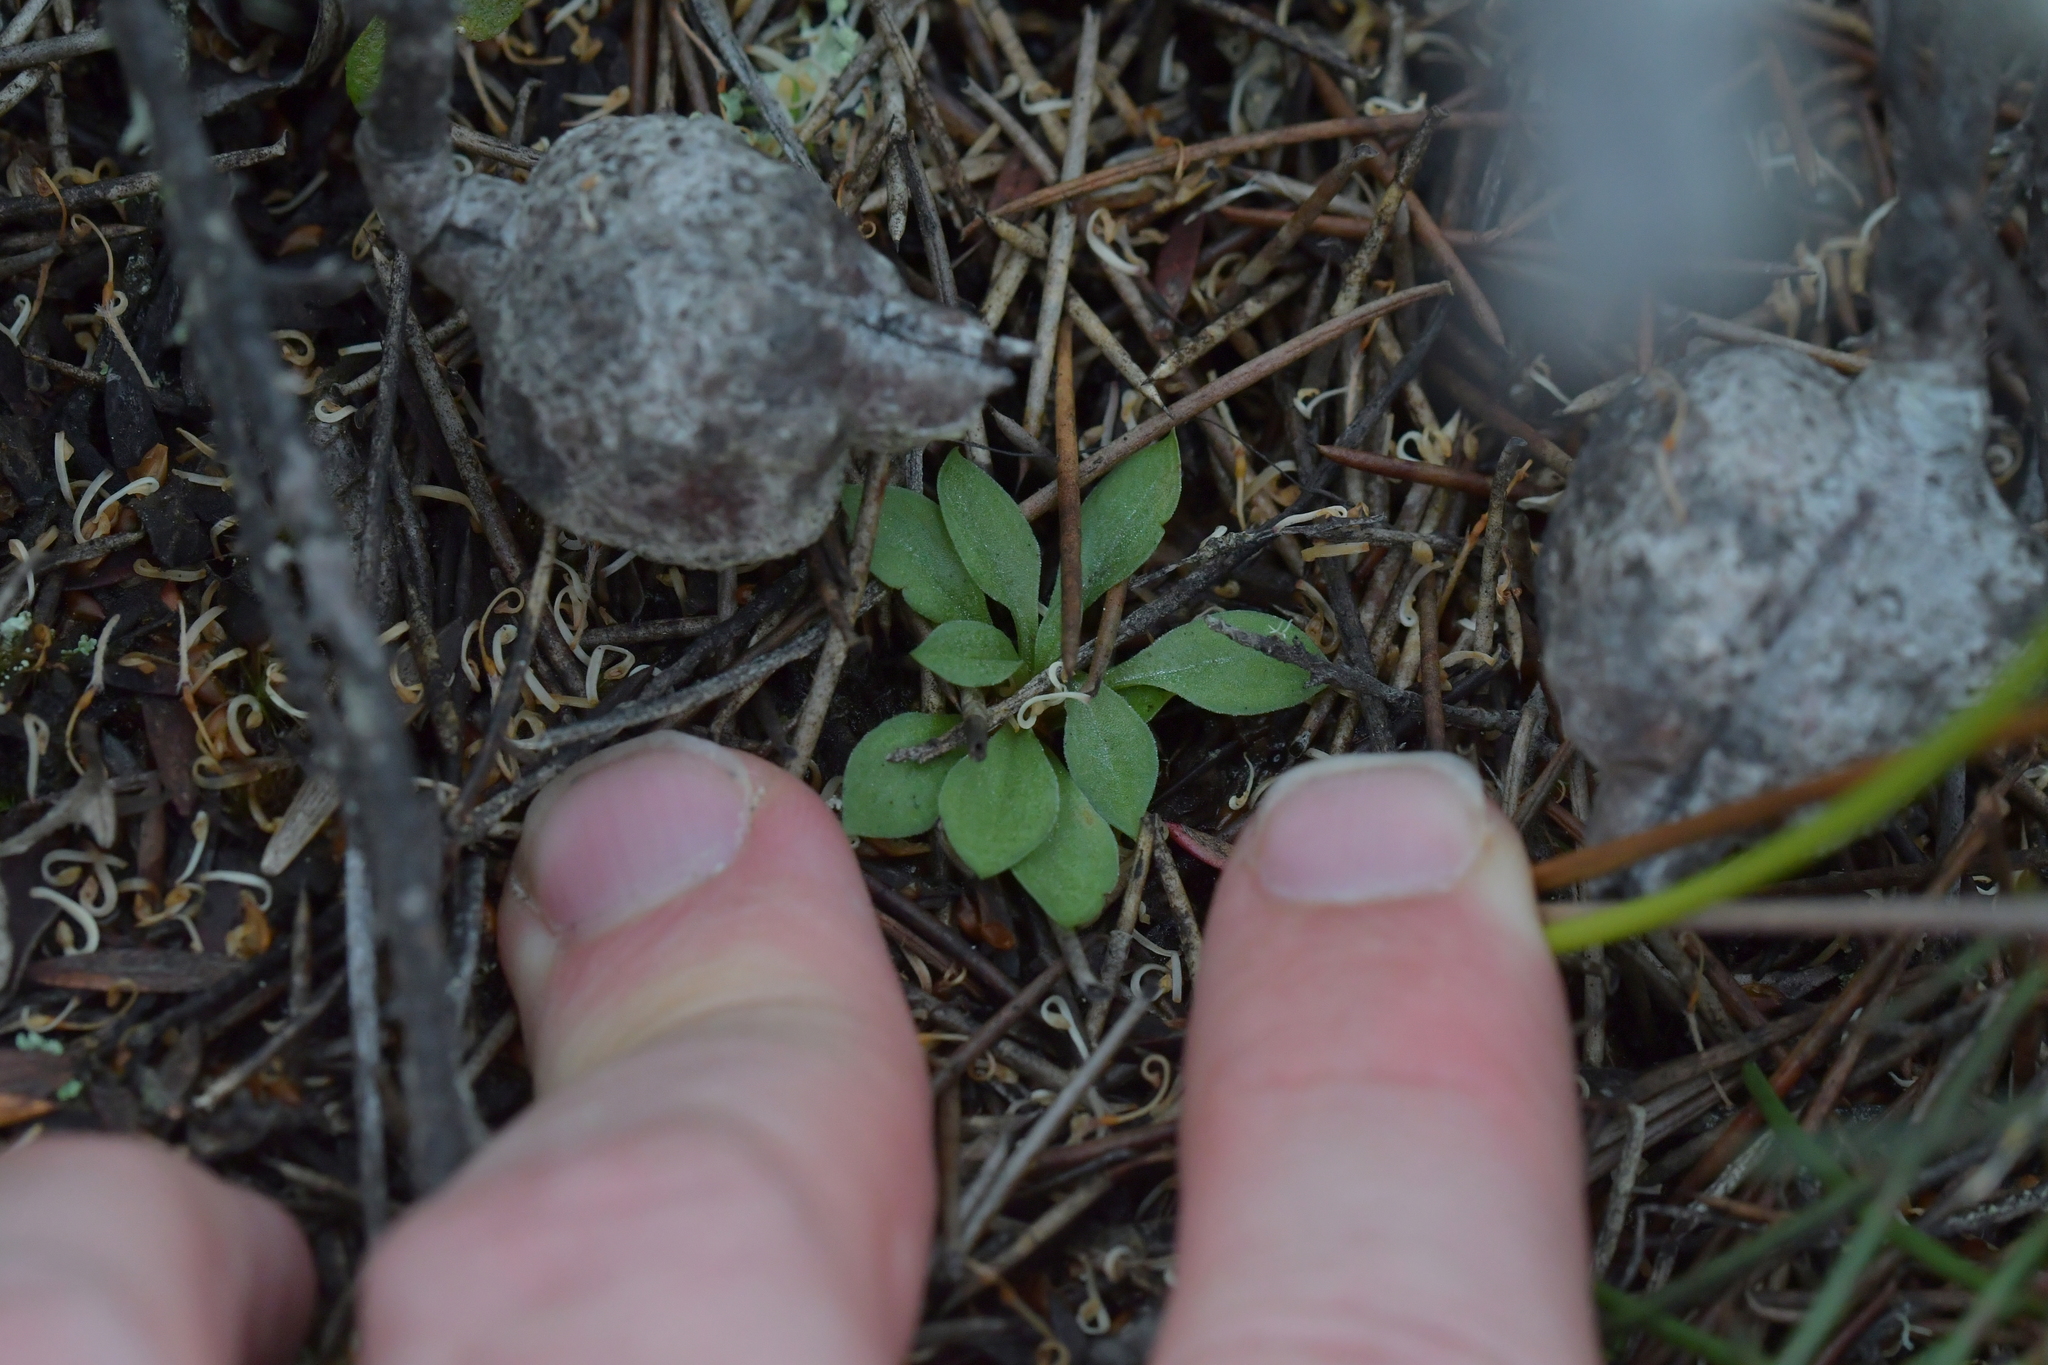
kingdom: Plantae
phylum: Tracheophyta
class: Liliopsida
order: Asparagales
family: Orchidaceae
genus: Pterostylis
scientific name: Pterostylis tasmanica
